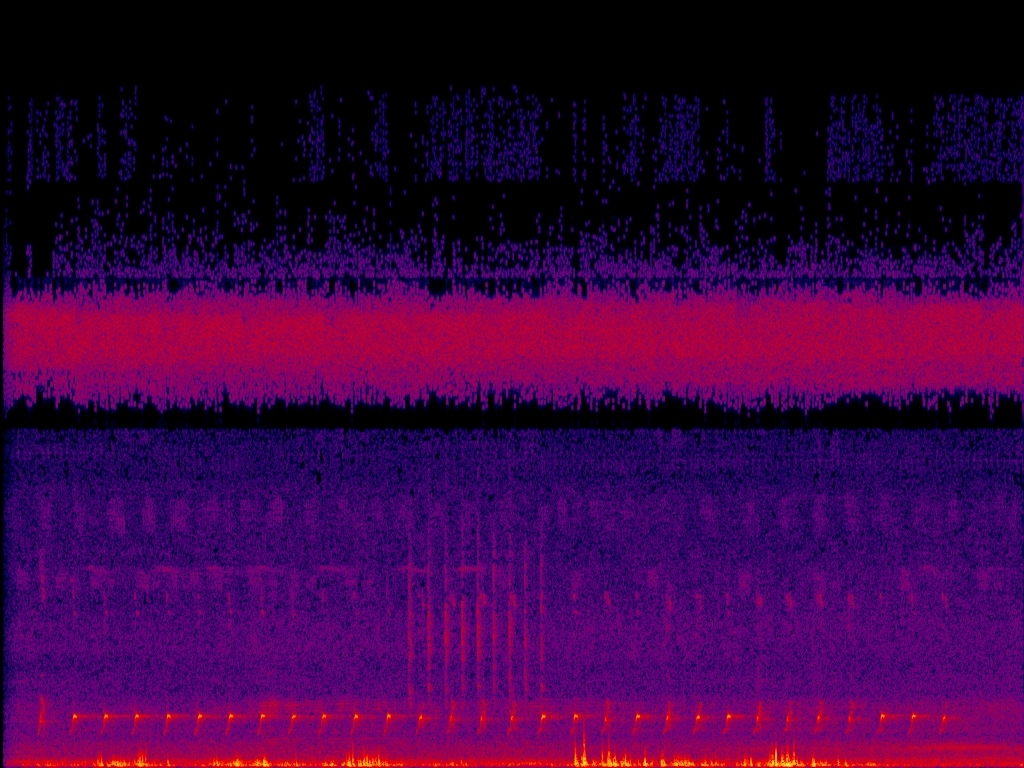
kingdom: Animalia
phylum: Chordata
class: Aves
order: Gruiformes
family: Rallidae
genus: Amaurornis
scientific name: Amaurornis phoenicurus
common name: White-breasted waterhen
